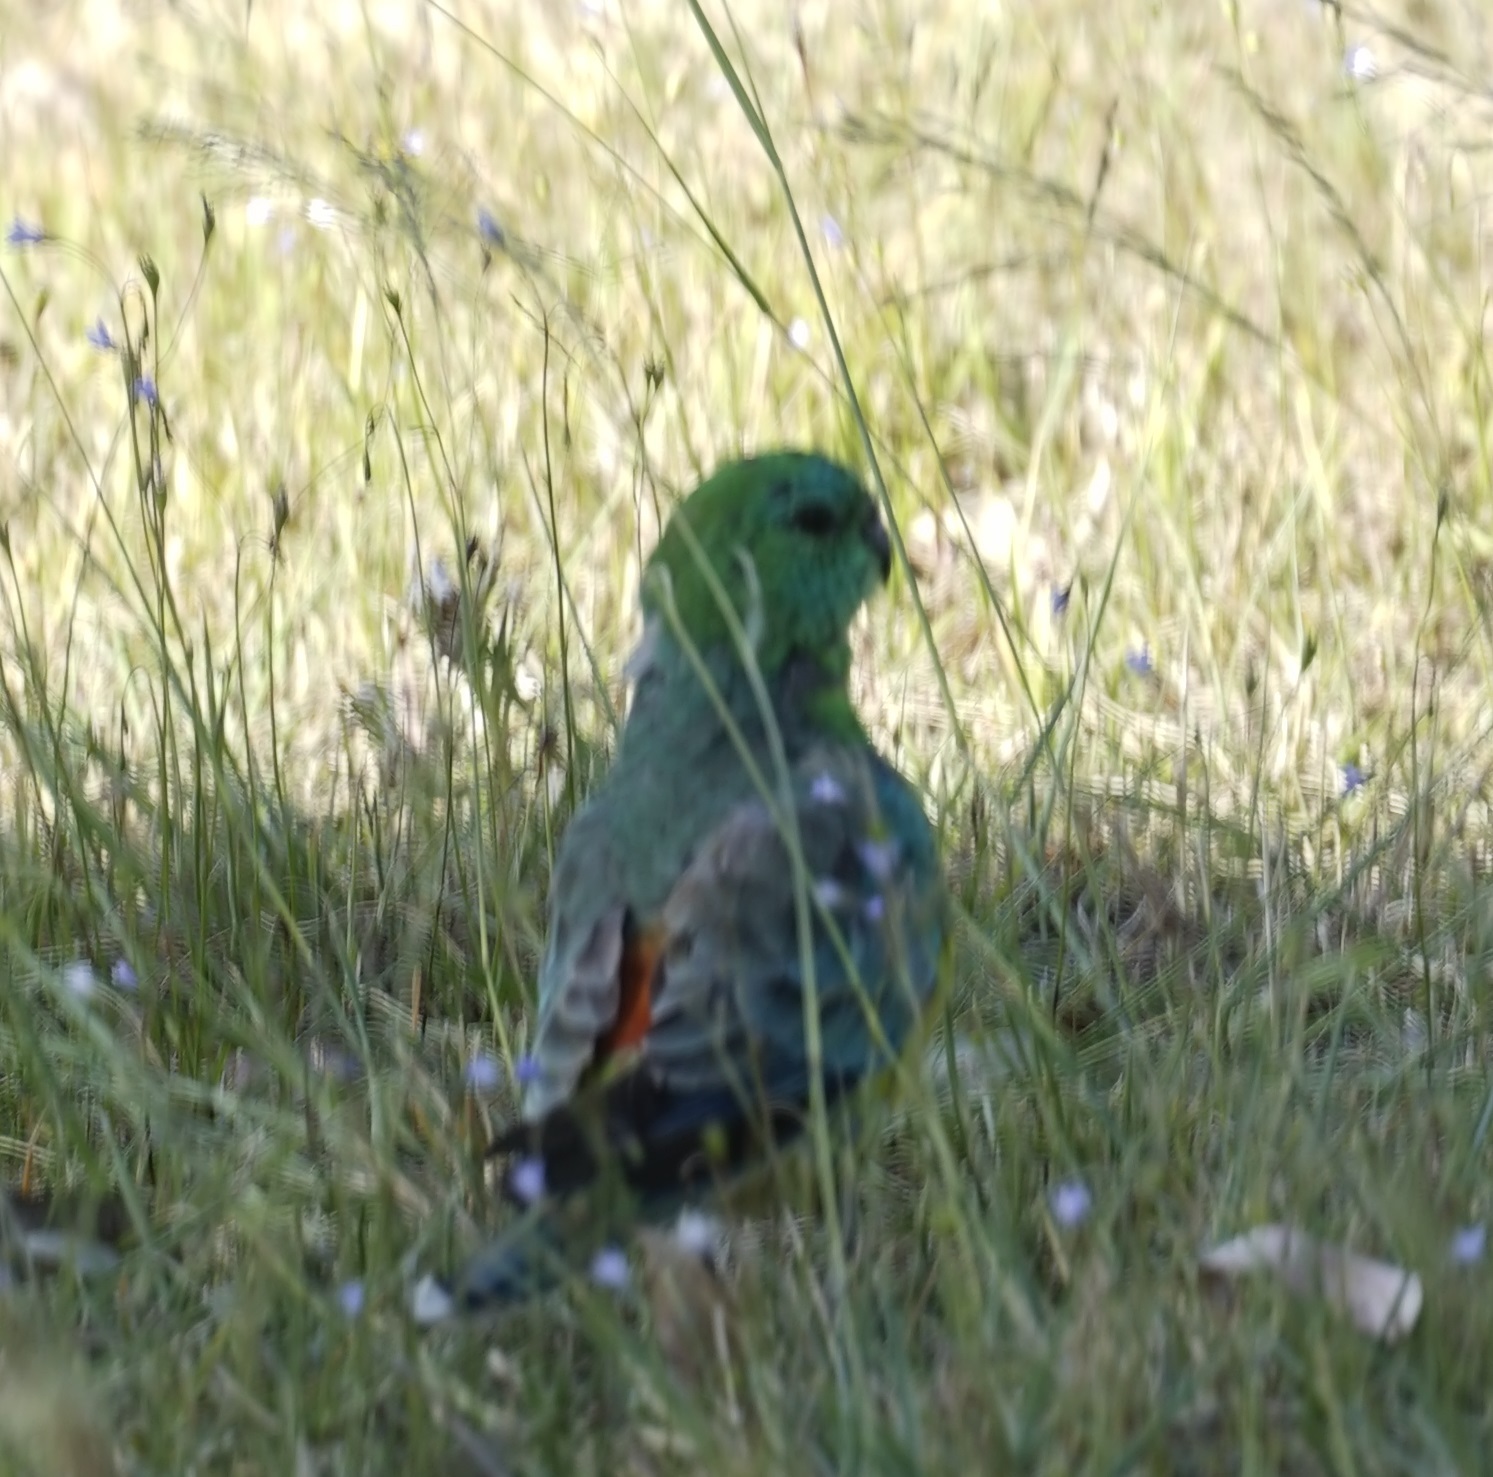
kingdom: Animalia
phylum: Chordata
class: Aves
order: Psittaciformes
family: Psittacidae
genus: Psephotus
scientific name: Psephotus haematonotus
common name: Red-rumped parrot
